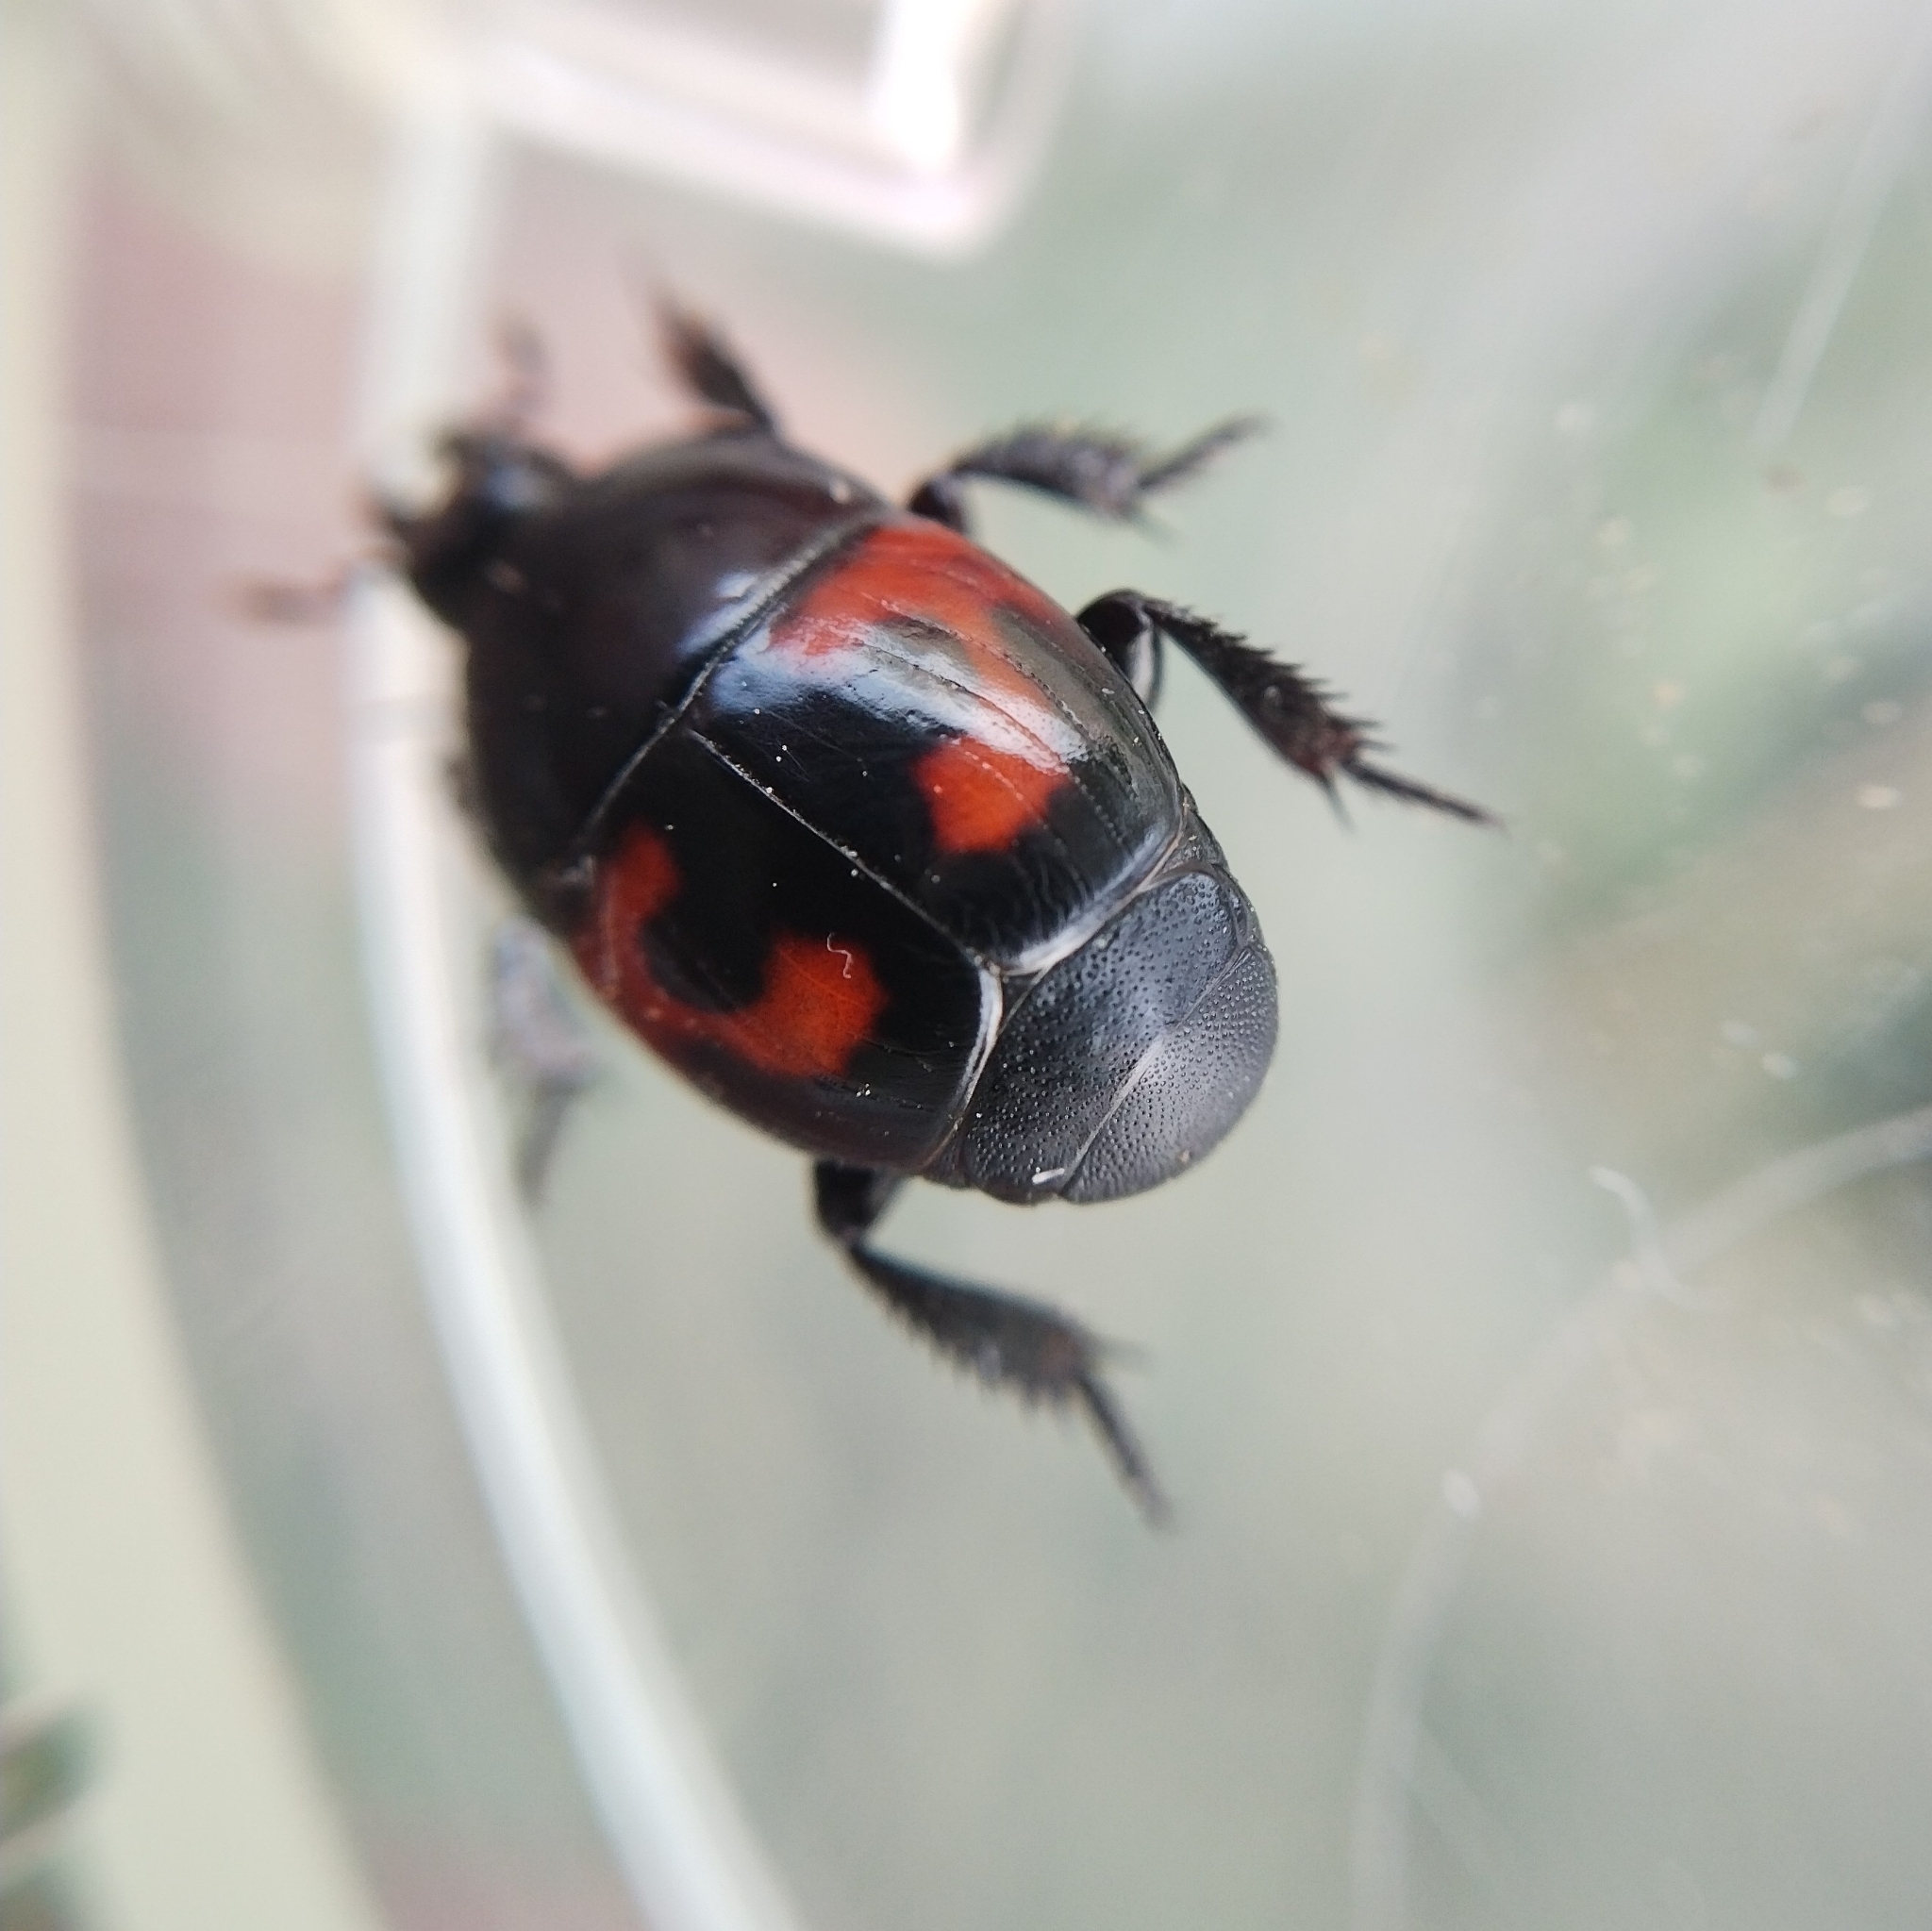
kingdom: Animalia
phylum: Arthropoda
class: Insecta
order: Coleoptera
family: Histeridae
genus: Hister
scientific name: Hister quadrimaculatus
